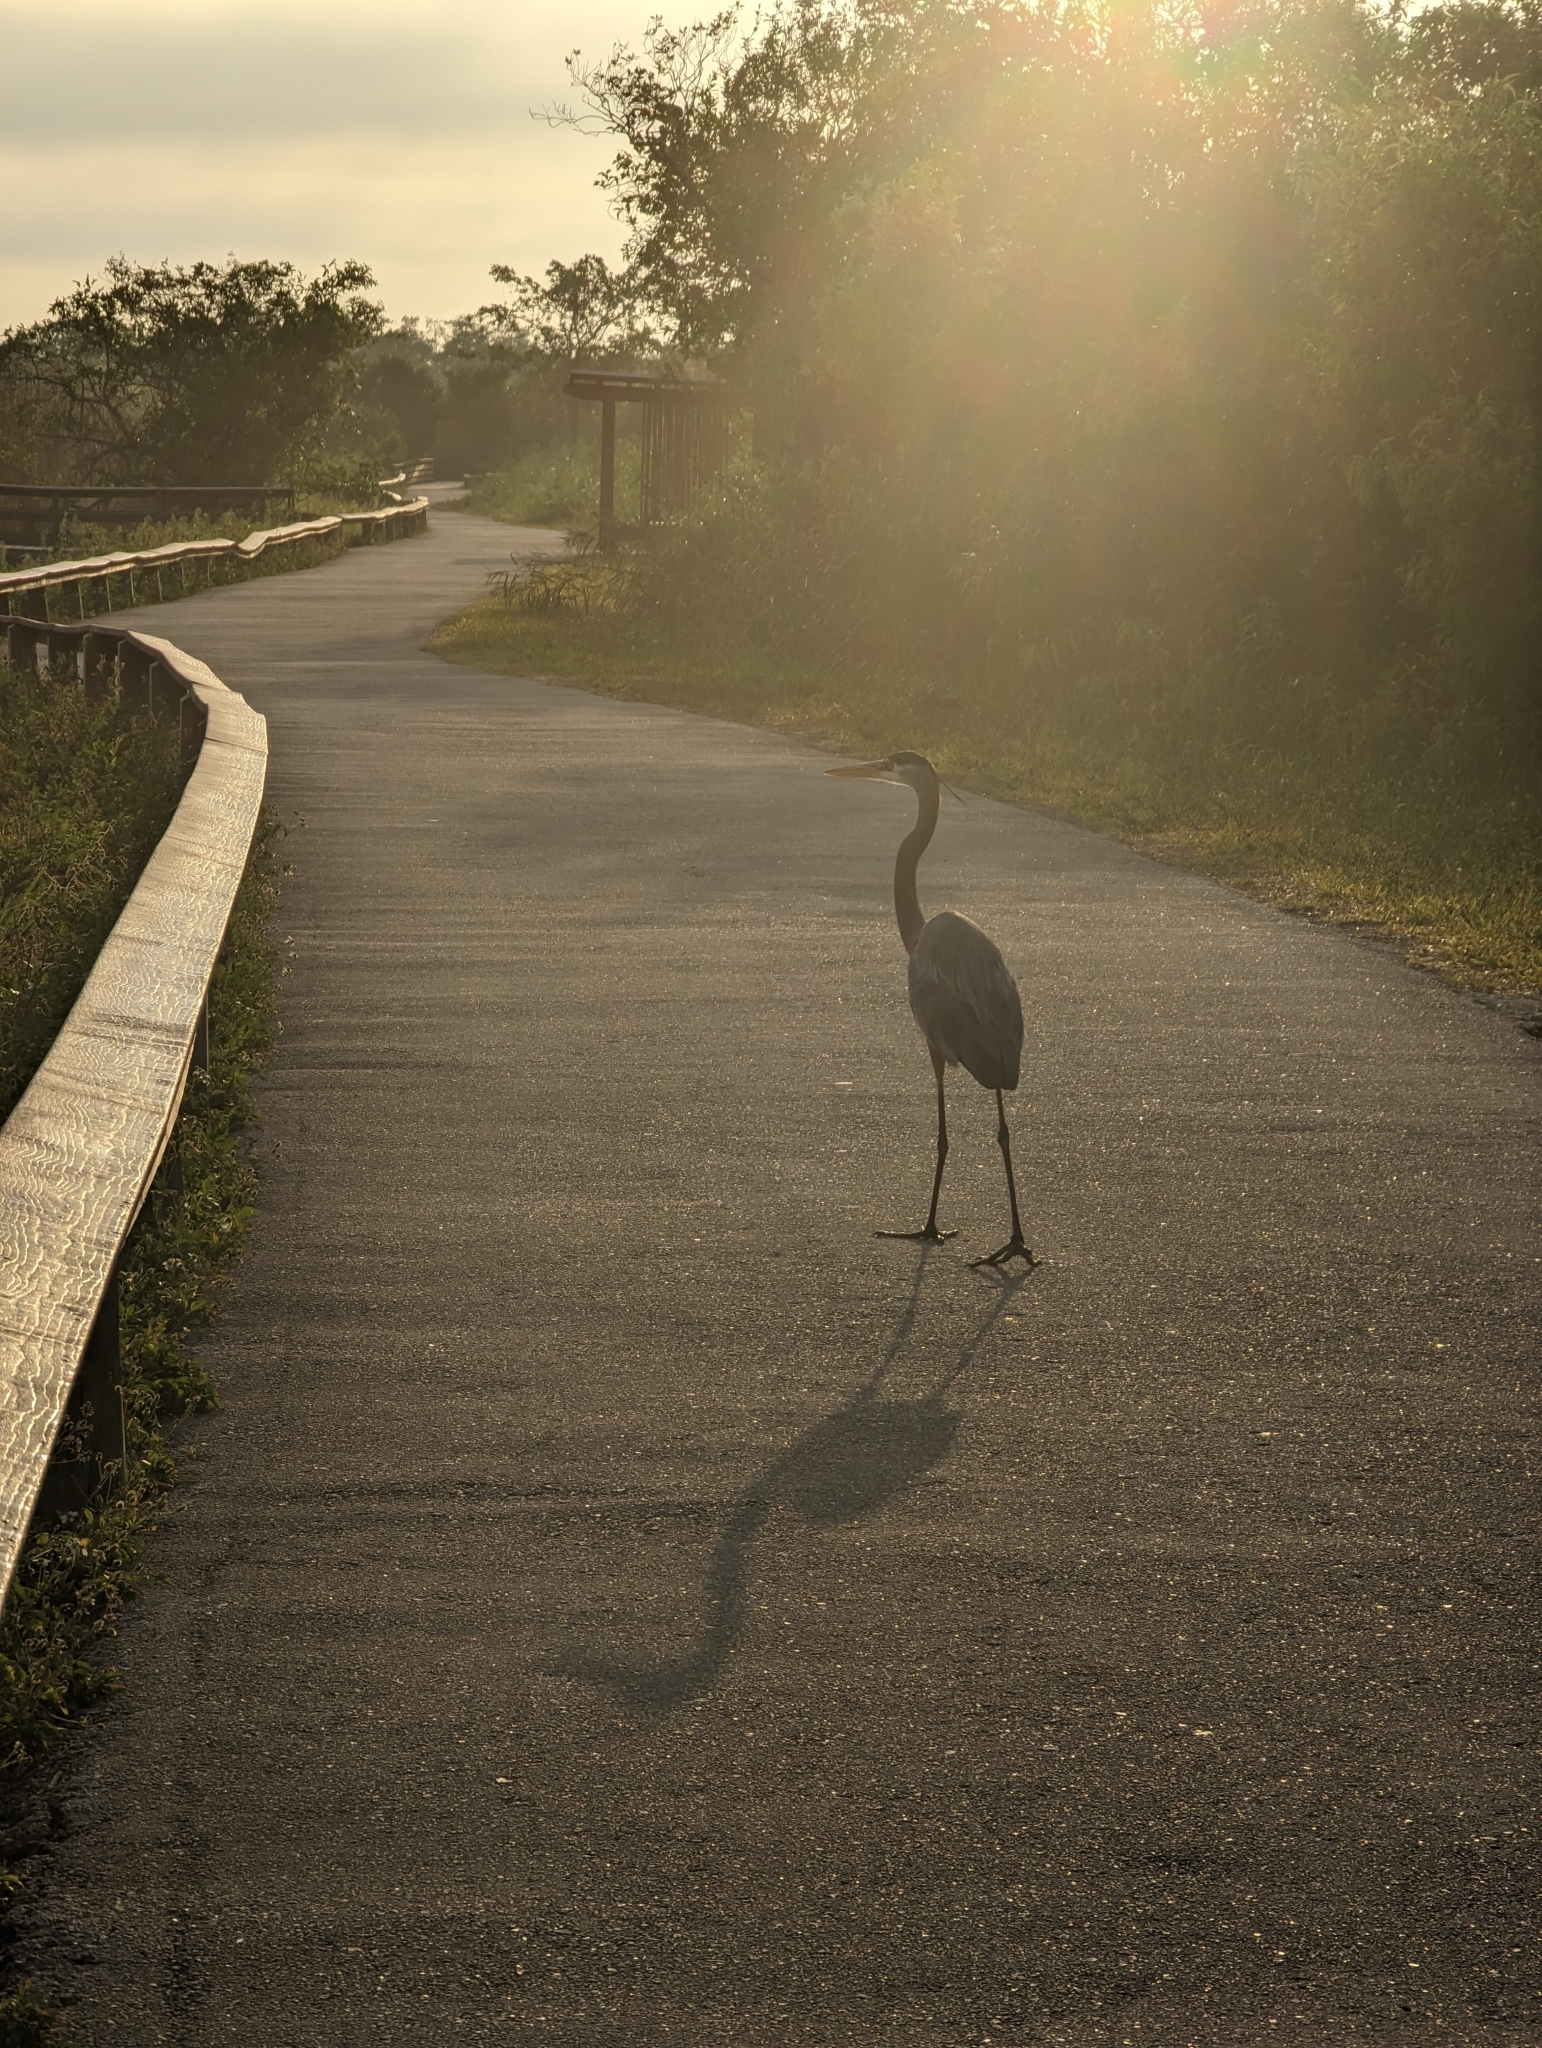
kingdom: Animalia
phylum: Chordata
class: Aves
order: Pelecaniformes
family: Ardeidae
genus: Ardea
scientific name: Ardea herodias
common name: Great blue heron
